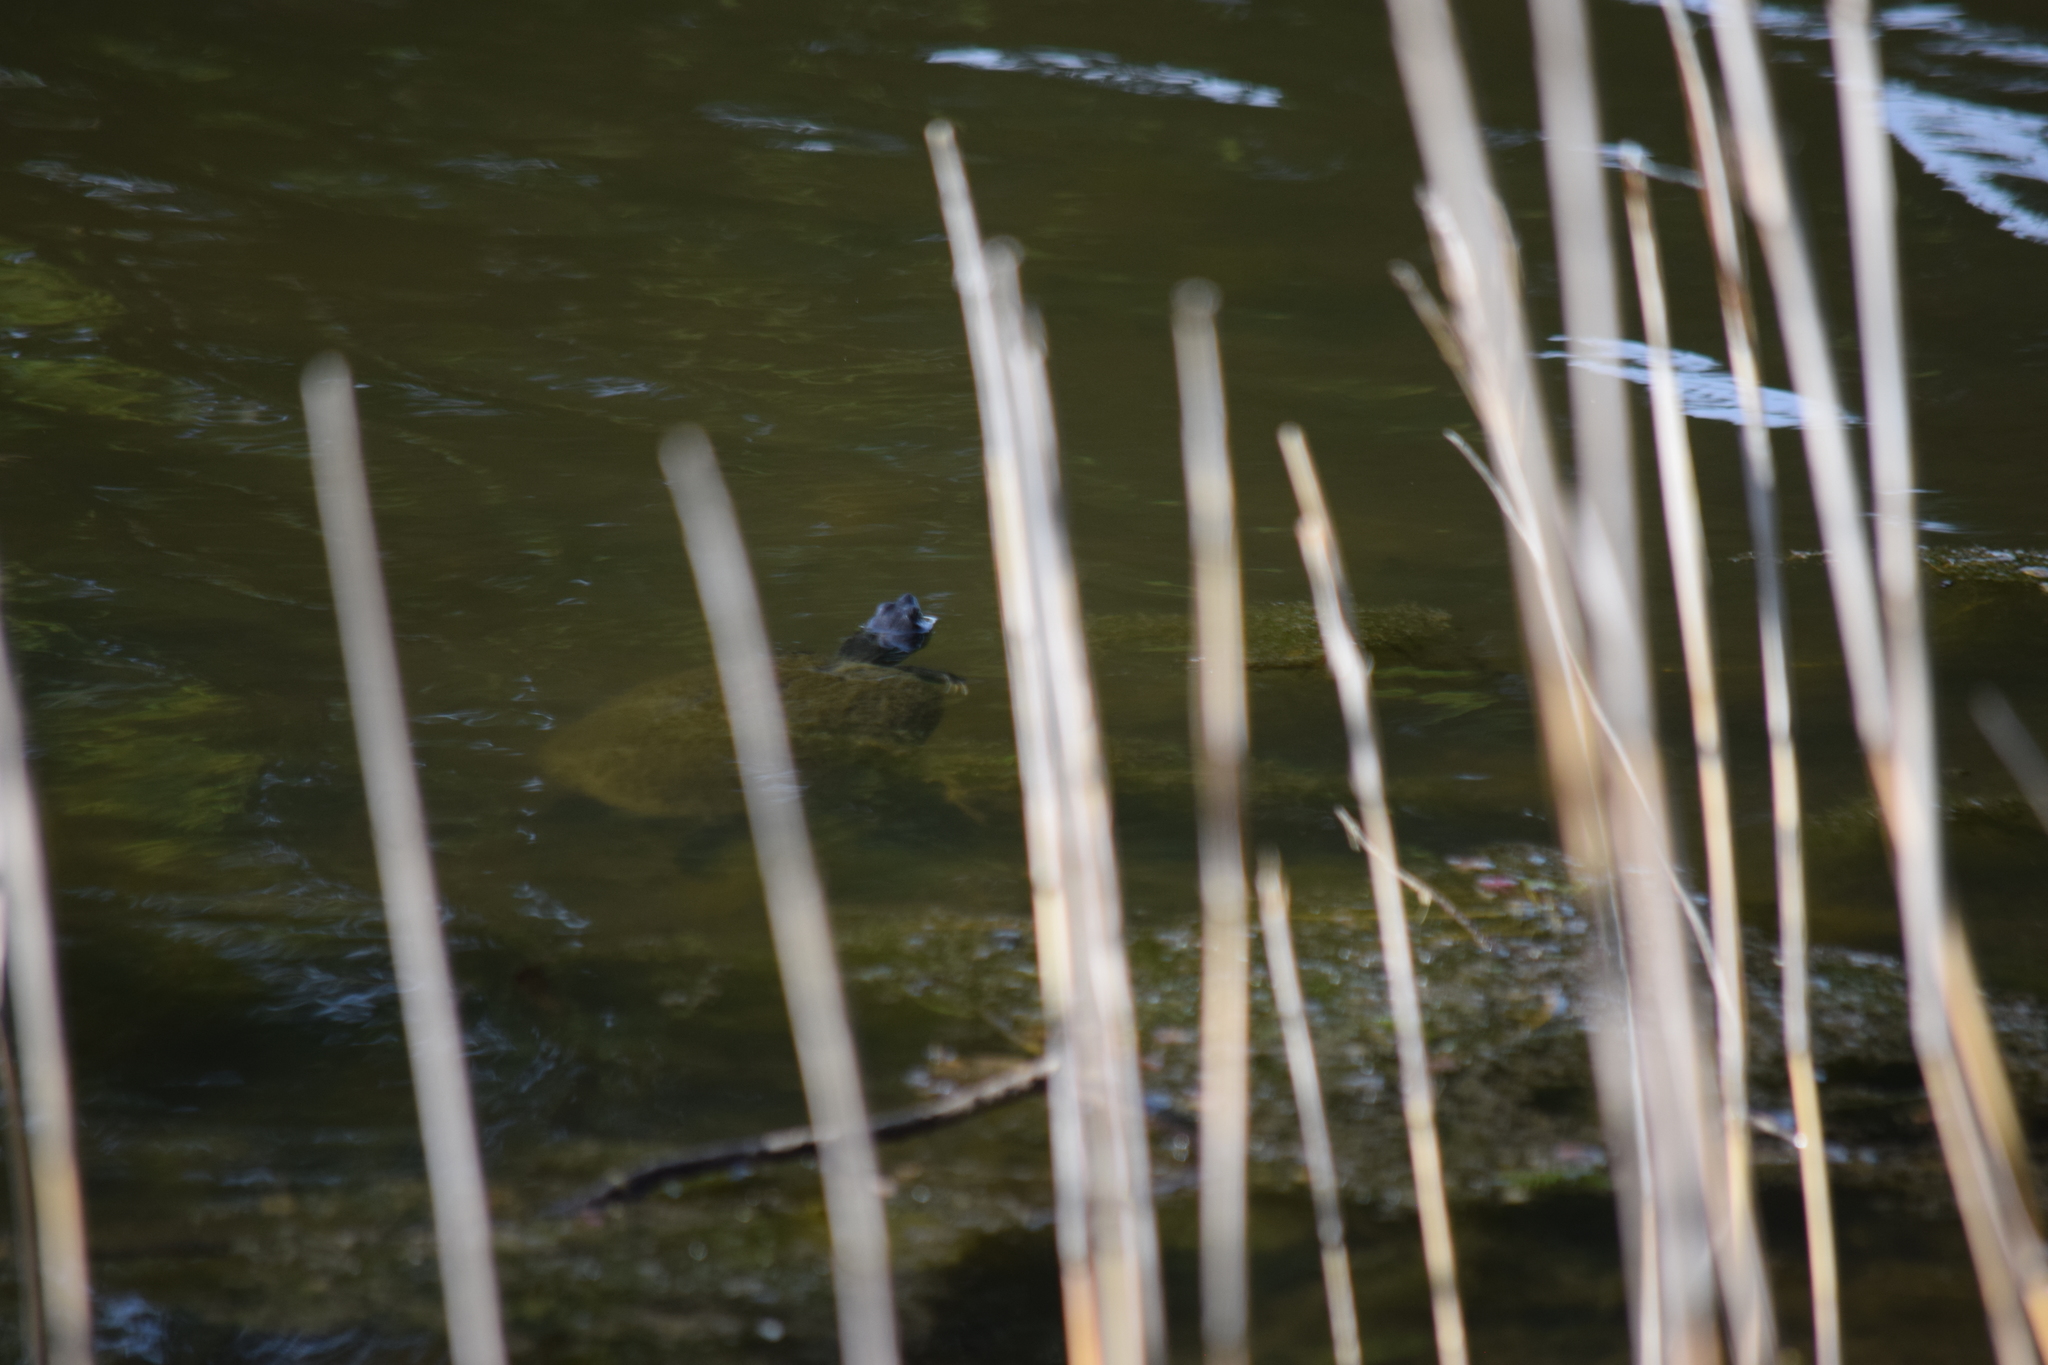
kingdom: Animalia
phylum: Chordata
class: Testudines
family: Emydidae
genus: Pseudemys
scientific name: Pseudemys rubriventris
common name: American red-bellied turtle
